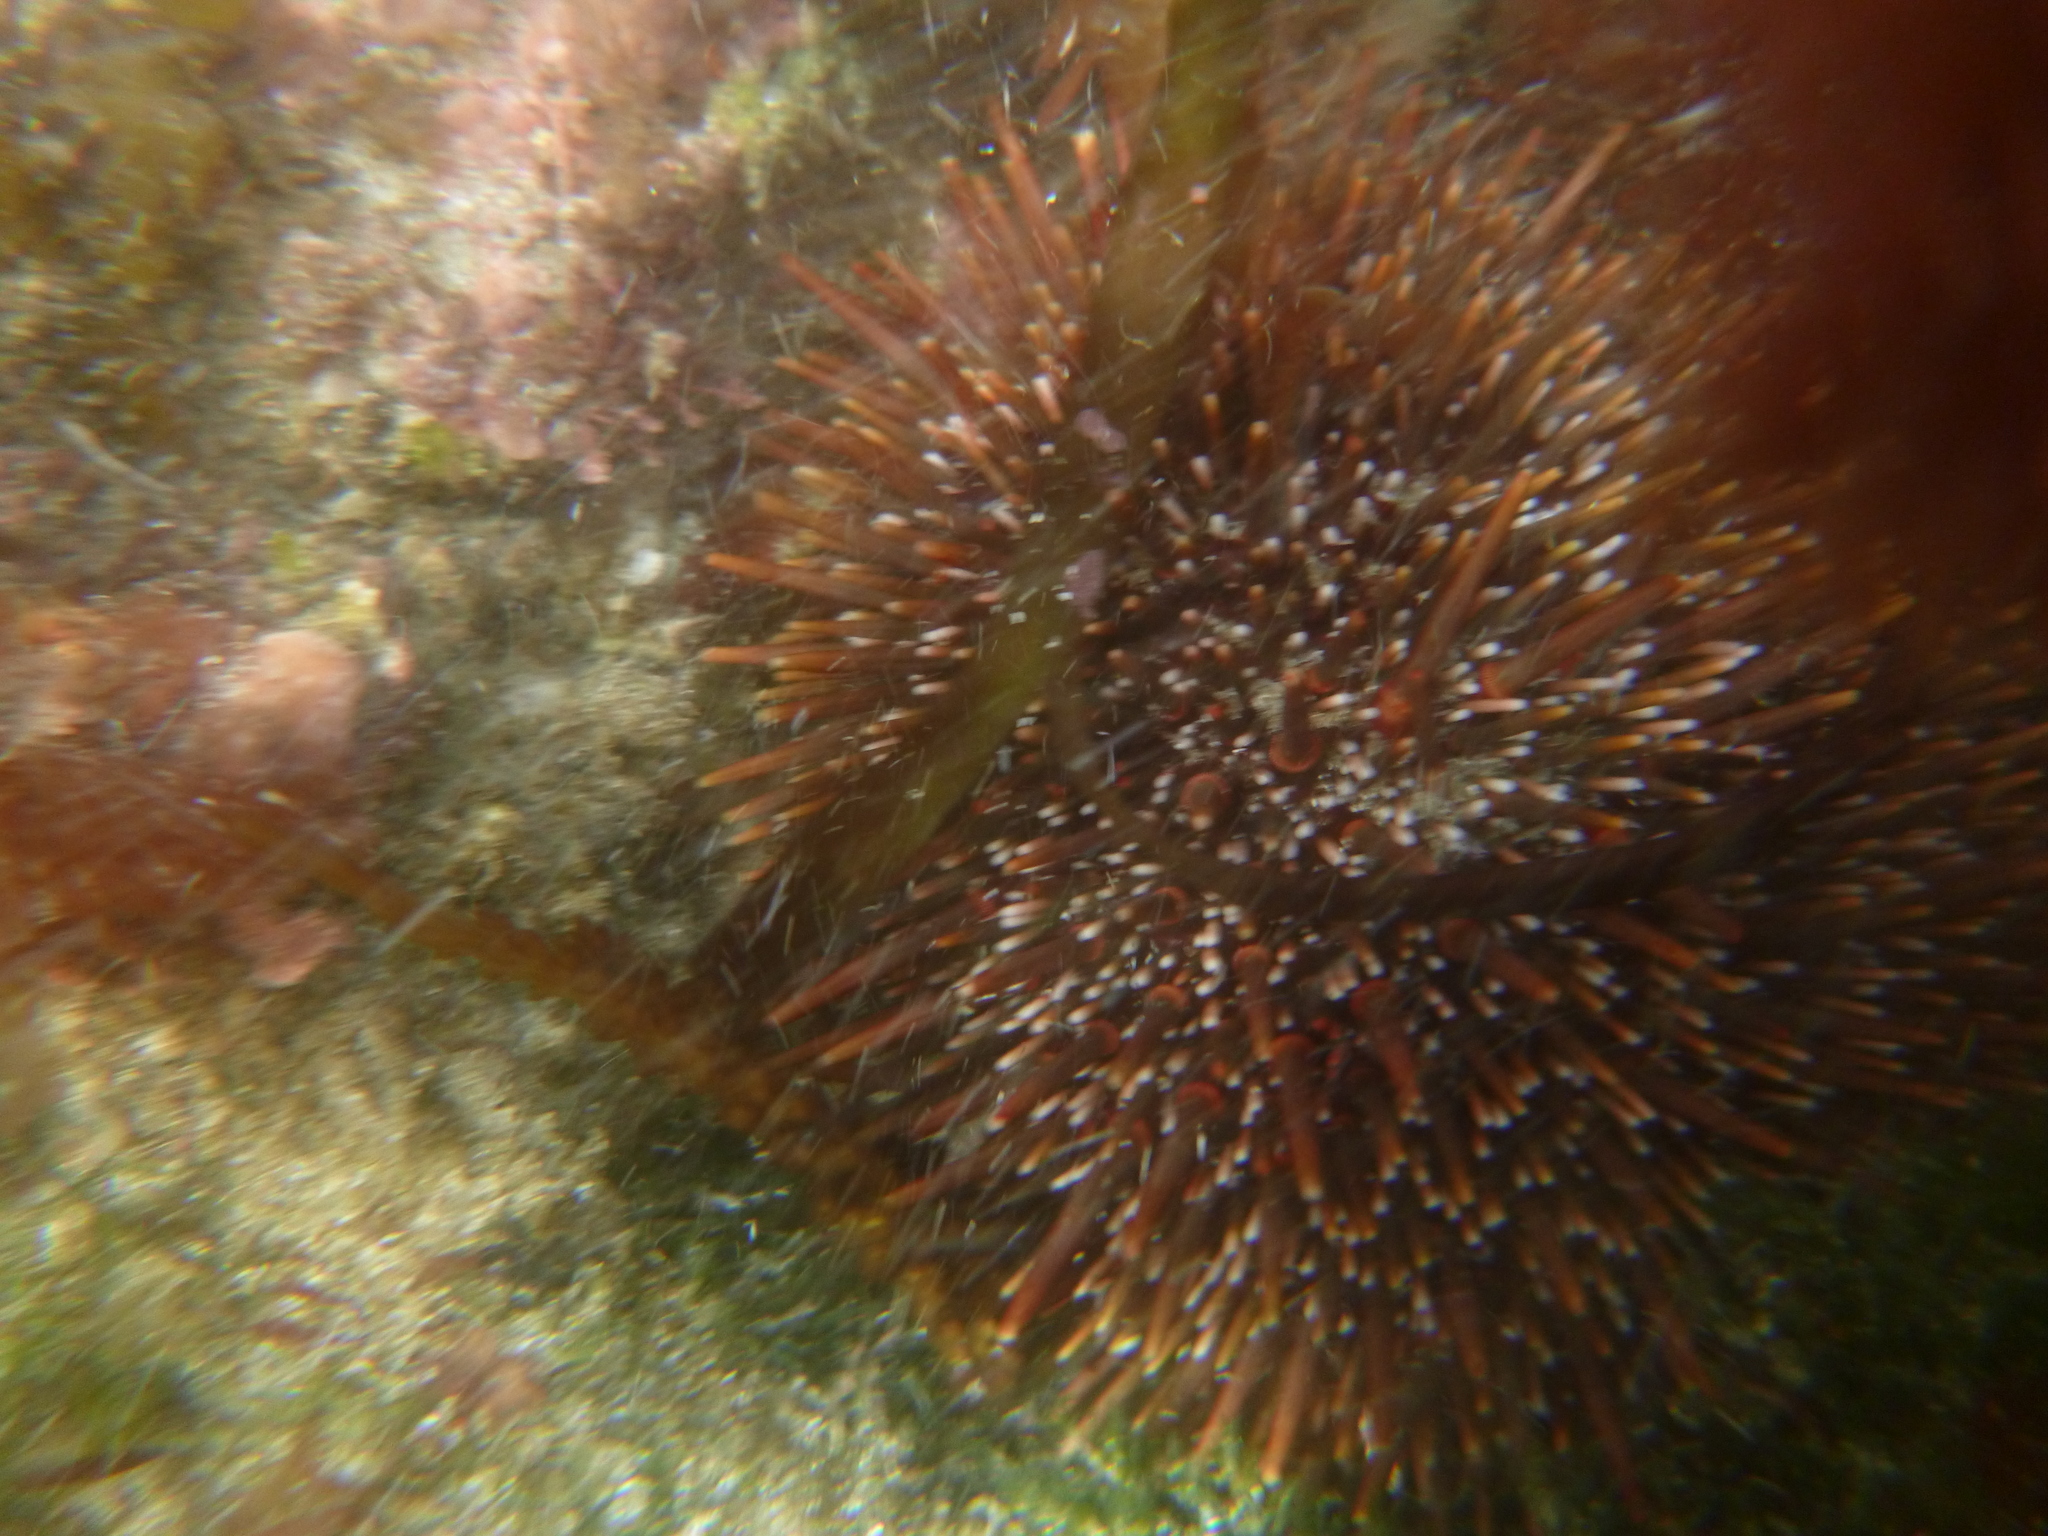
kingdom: Animalia
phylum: Echinodermata
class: Echinoidea
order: Camarodonta
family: Echinometridae
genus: Evechinus
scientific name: Evechinus chloroticus
